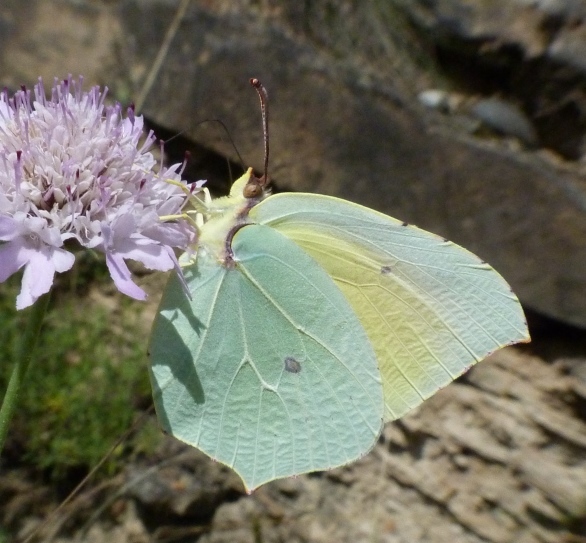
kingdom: Animalia
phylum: Arthropoda
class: Insecta
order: Lepidoptera
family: Pieridae
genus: Gonepteryx
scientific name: Gonepteryx cleopatra
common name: Cleopatra
